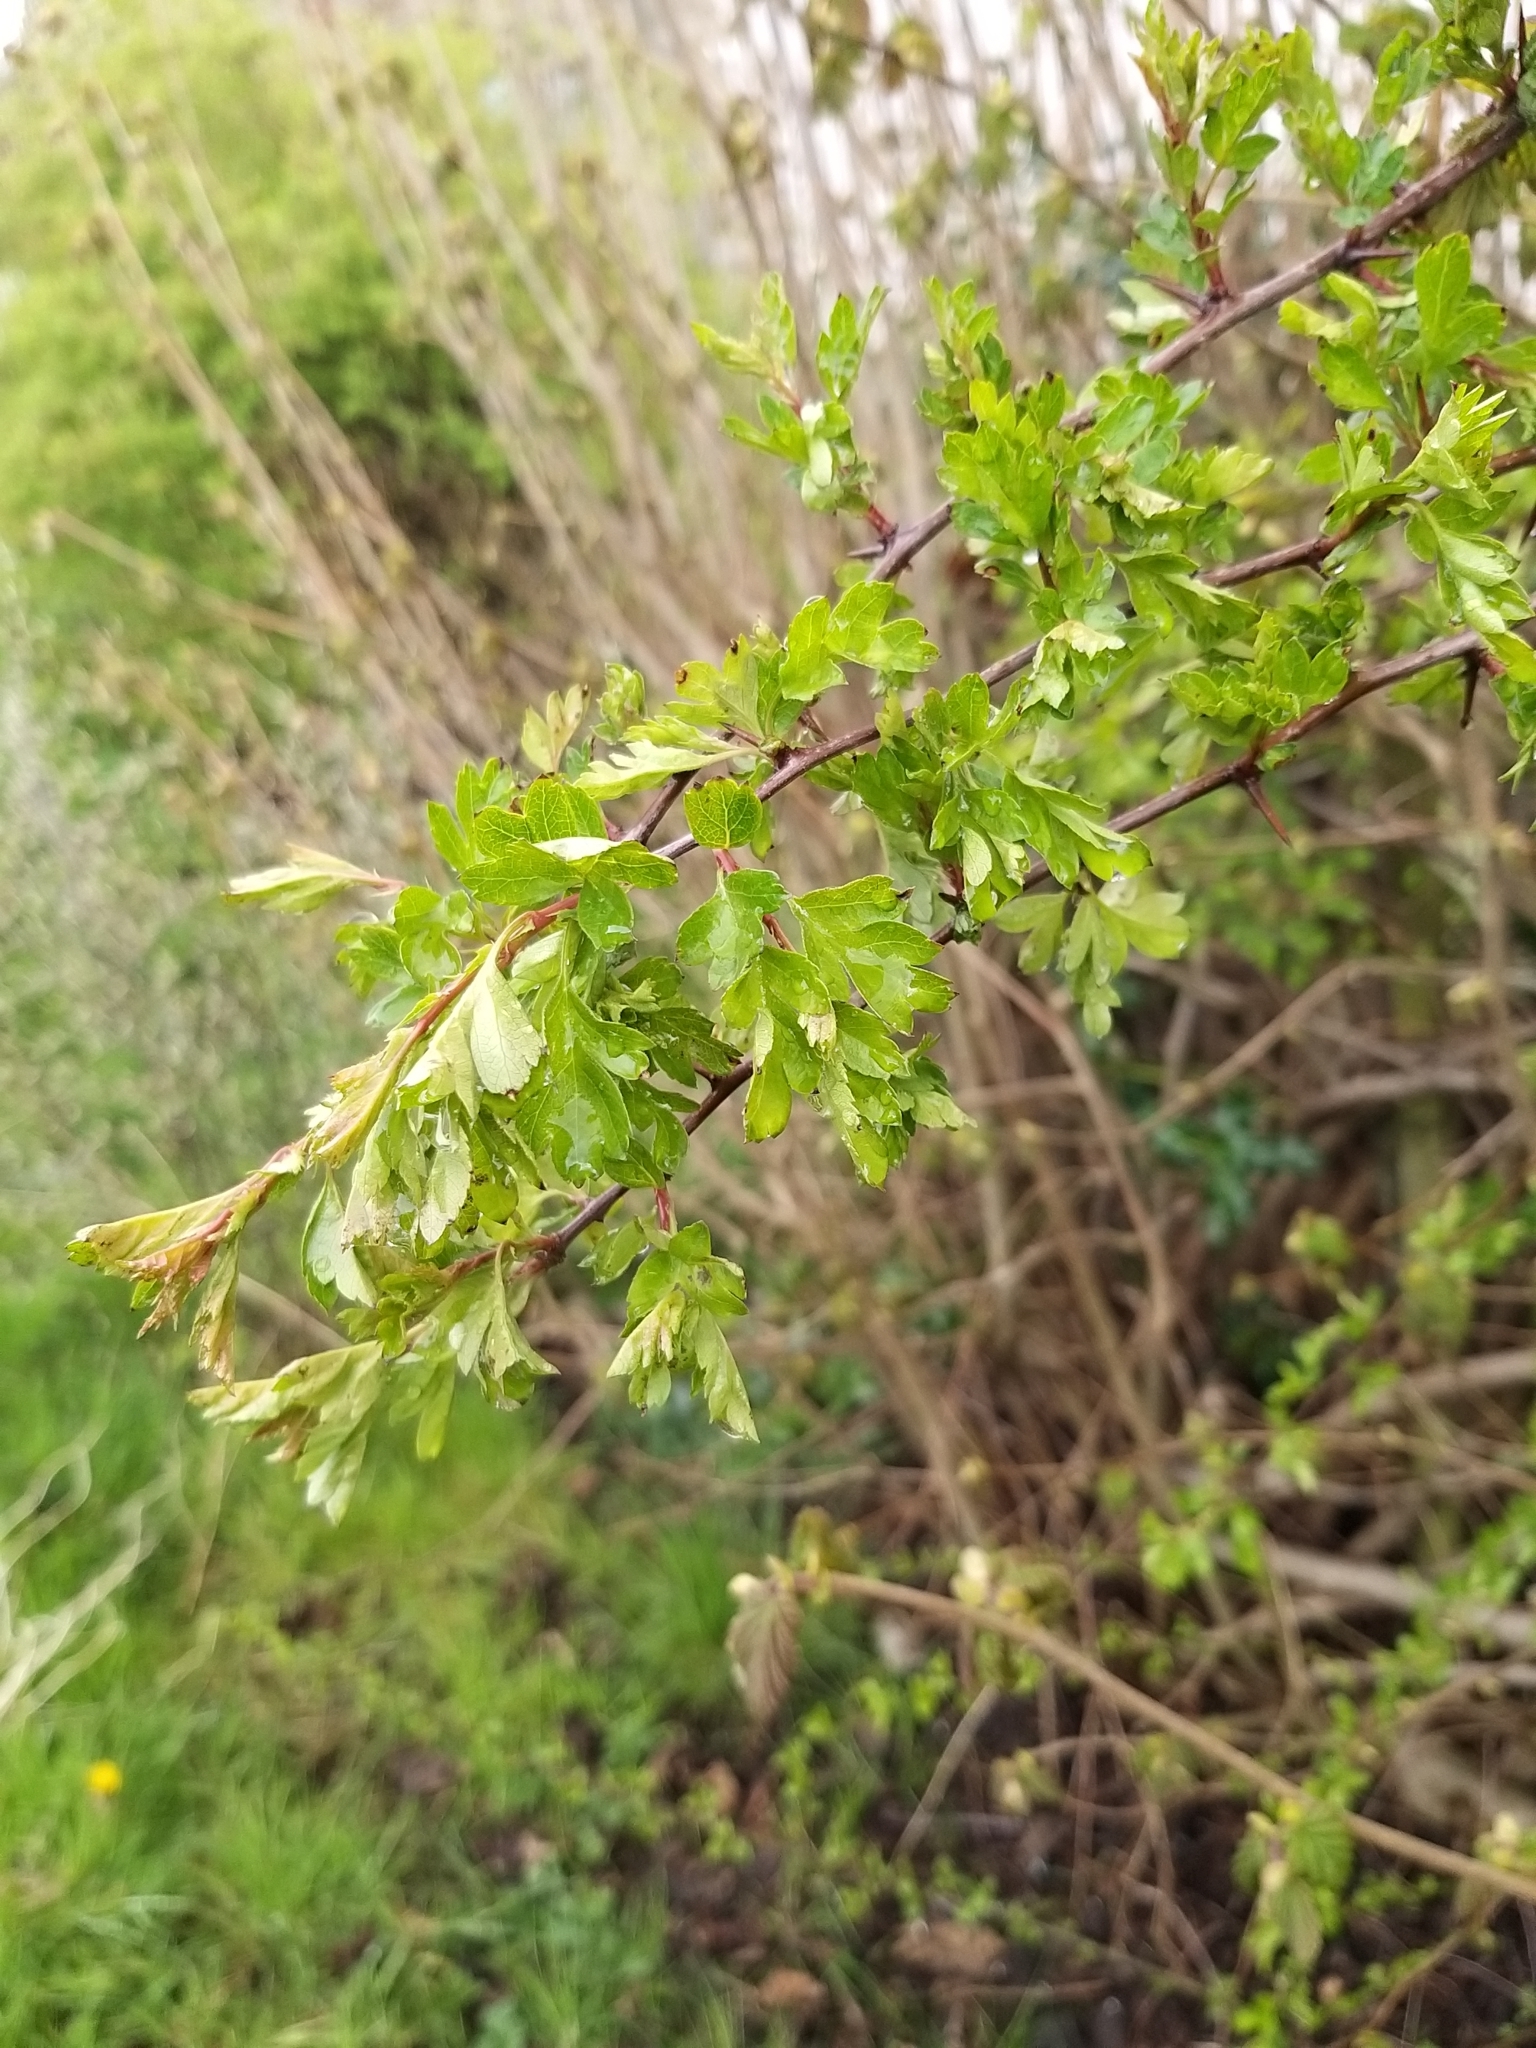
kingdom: Plantae
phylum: Tracheophyta
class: Magnoliopsida
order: Rosales
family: Rosaceae
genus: Crataegus
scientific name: Crataegus monogyna
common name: Hawthorn
